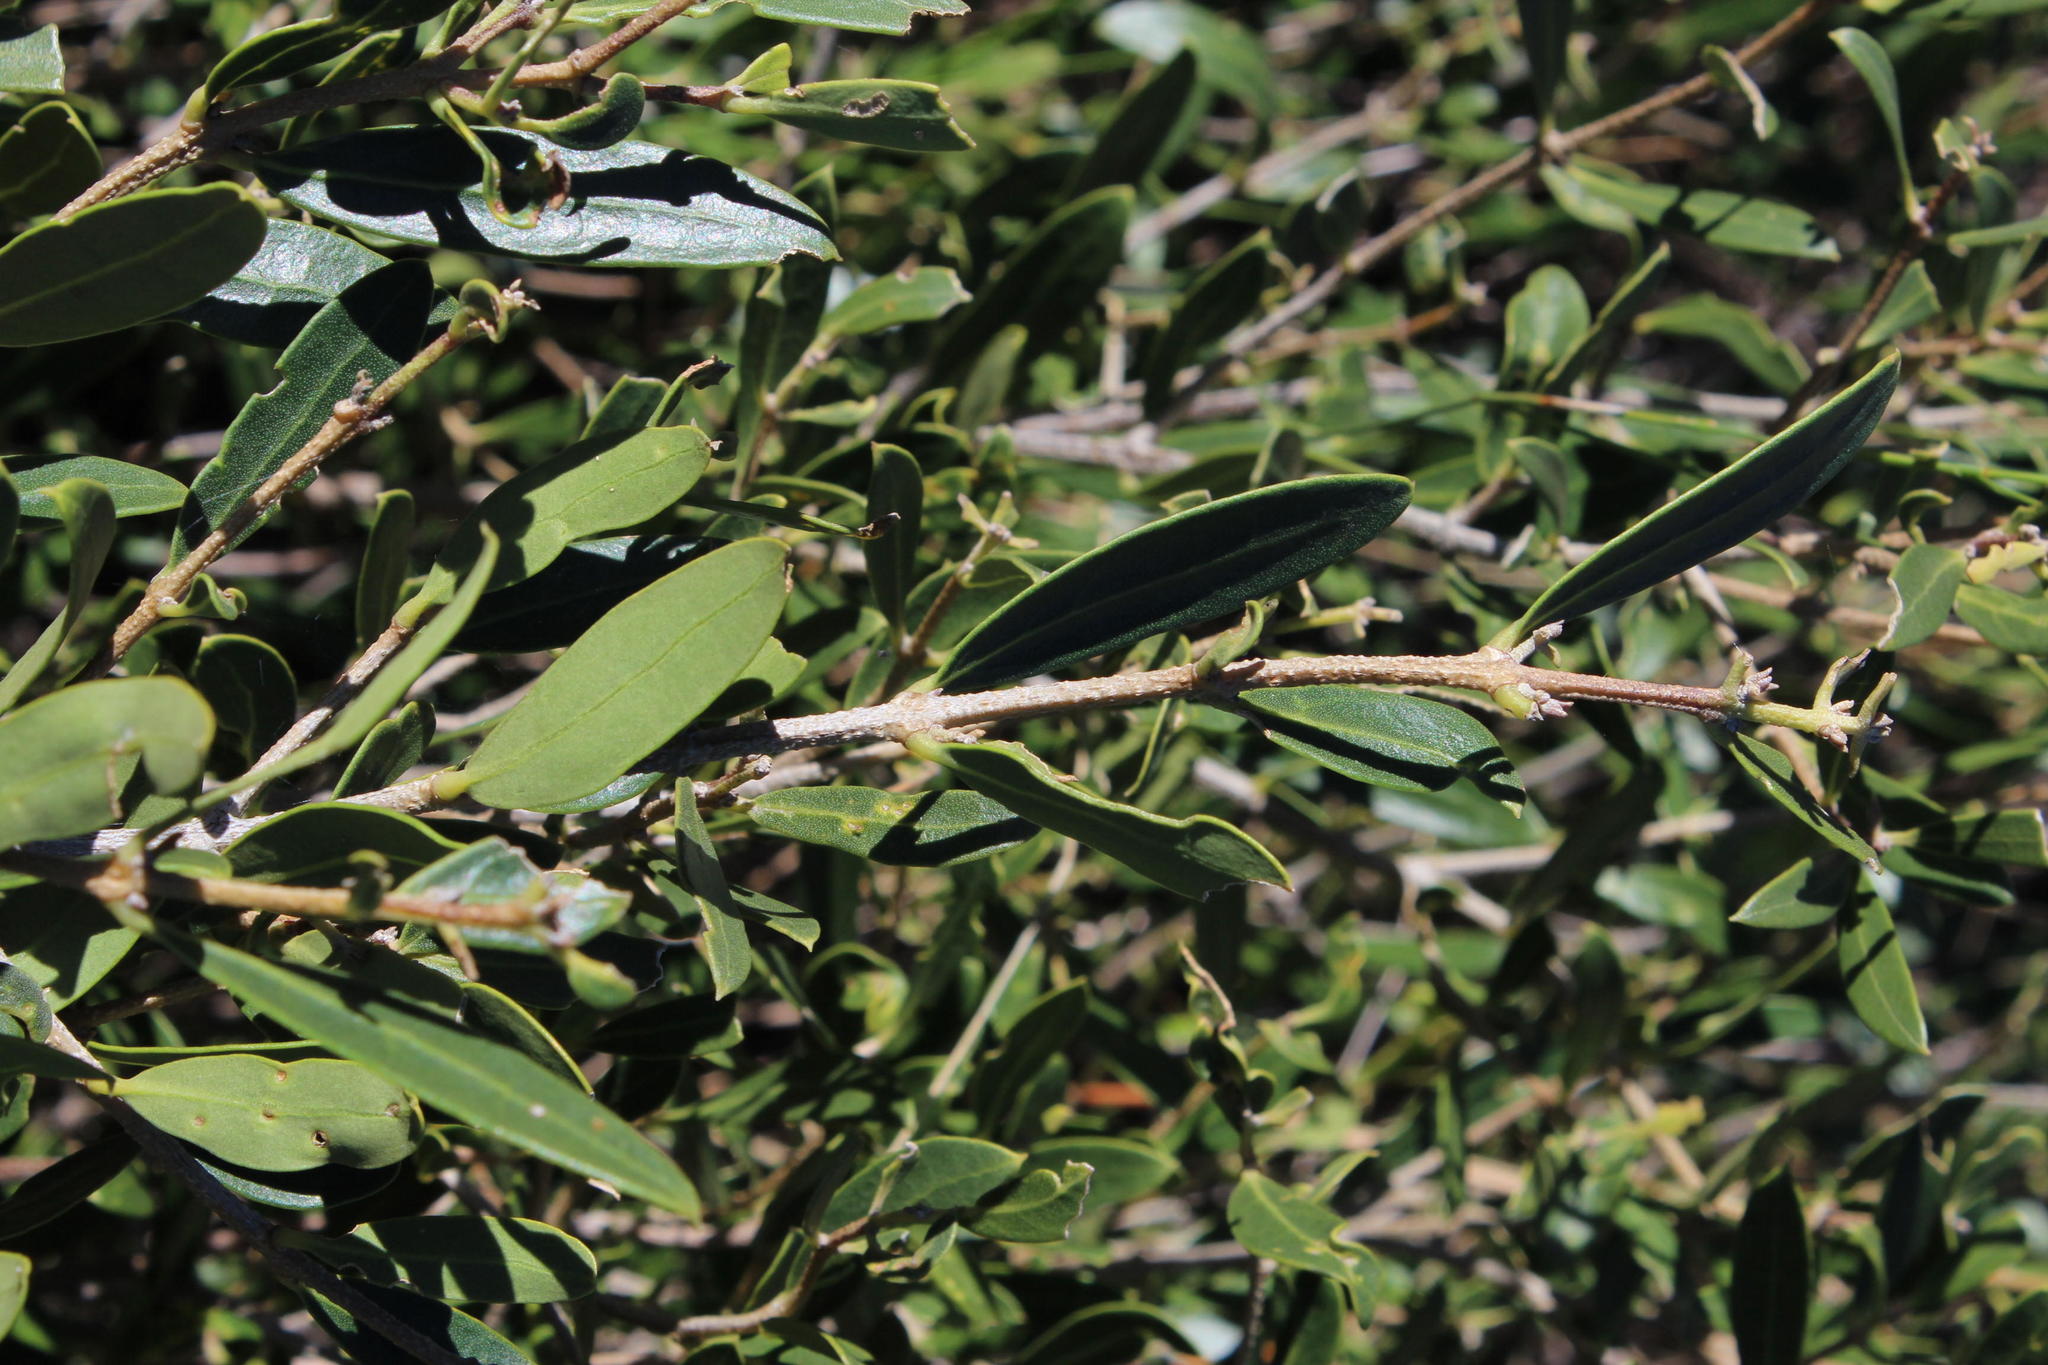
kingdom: Plantae
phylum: Tracheophyta
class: Magnoliopsida
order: Lamiales
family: Oleaceae
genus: Olea
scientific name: Olea exasperata
